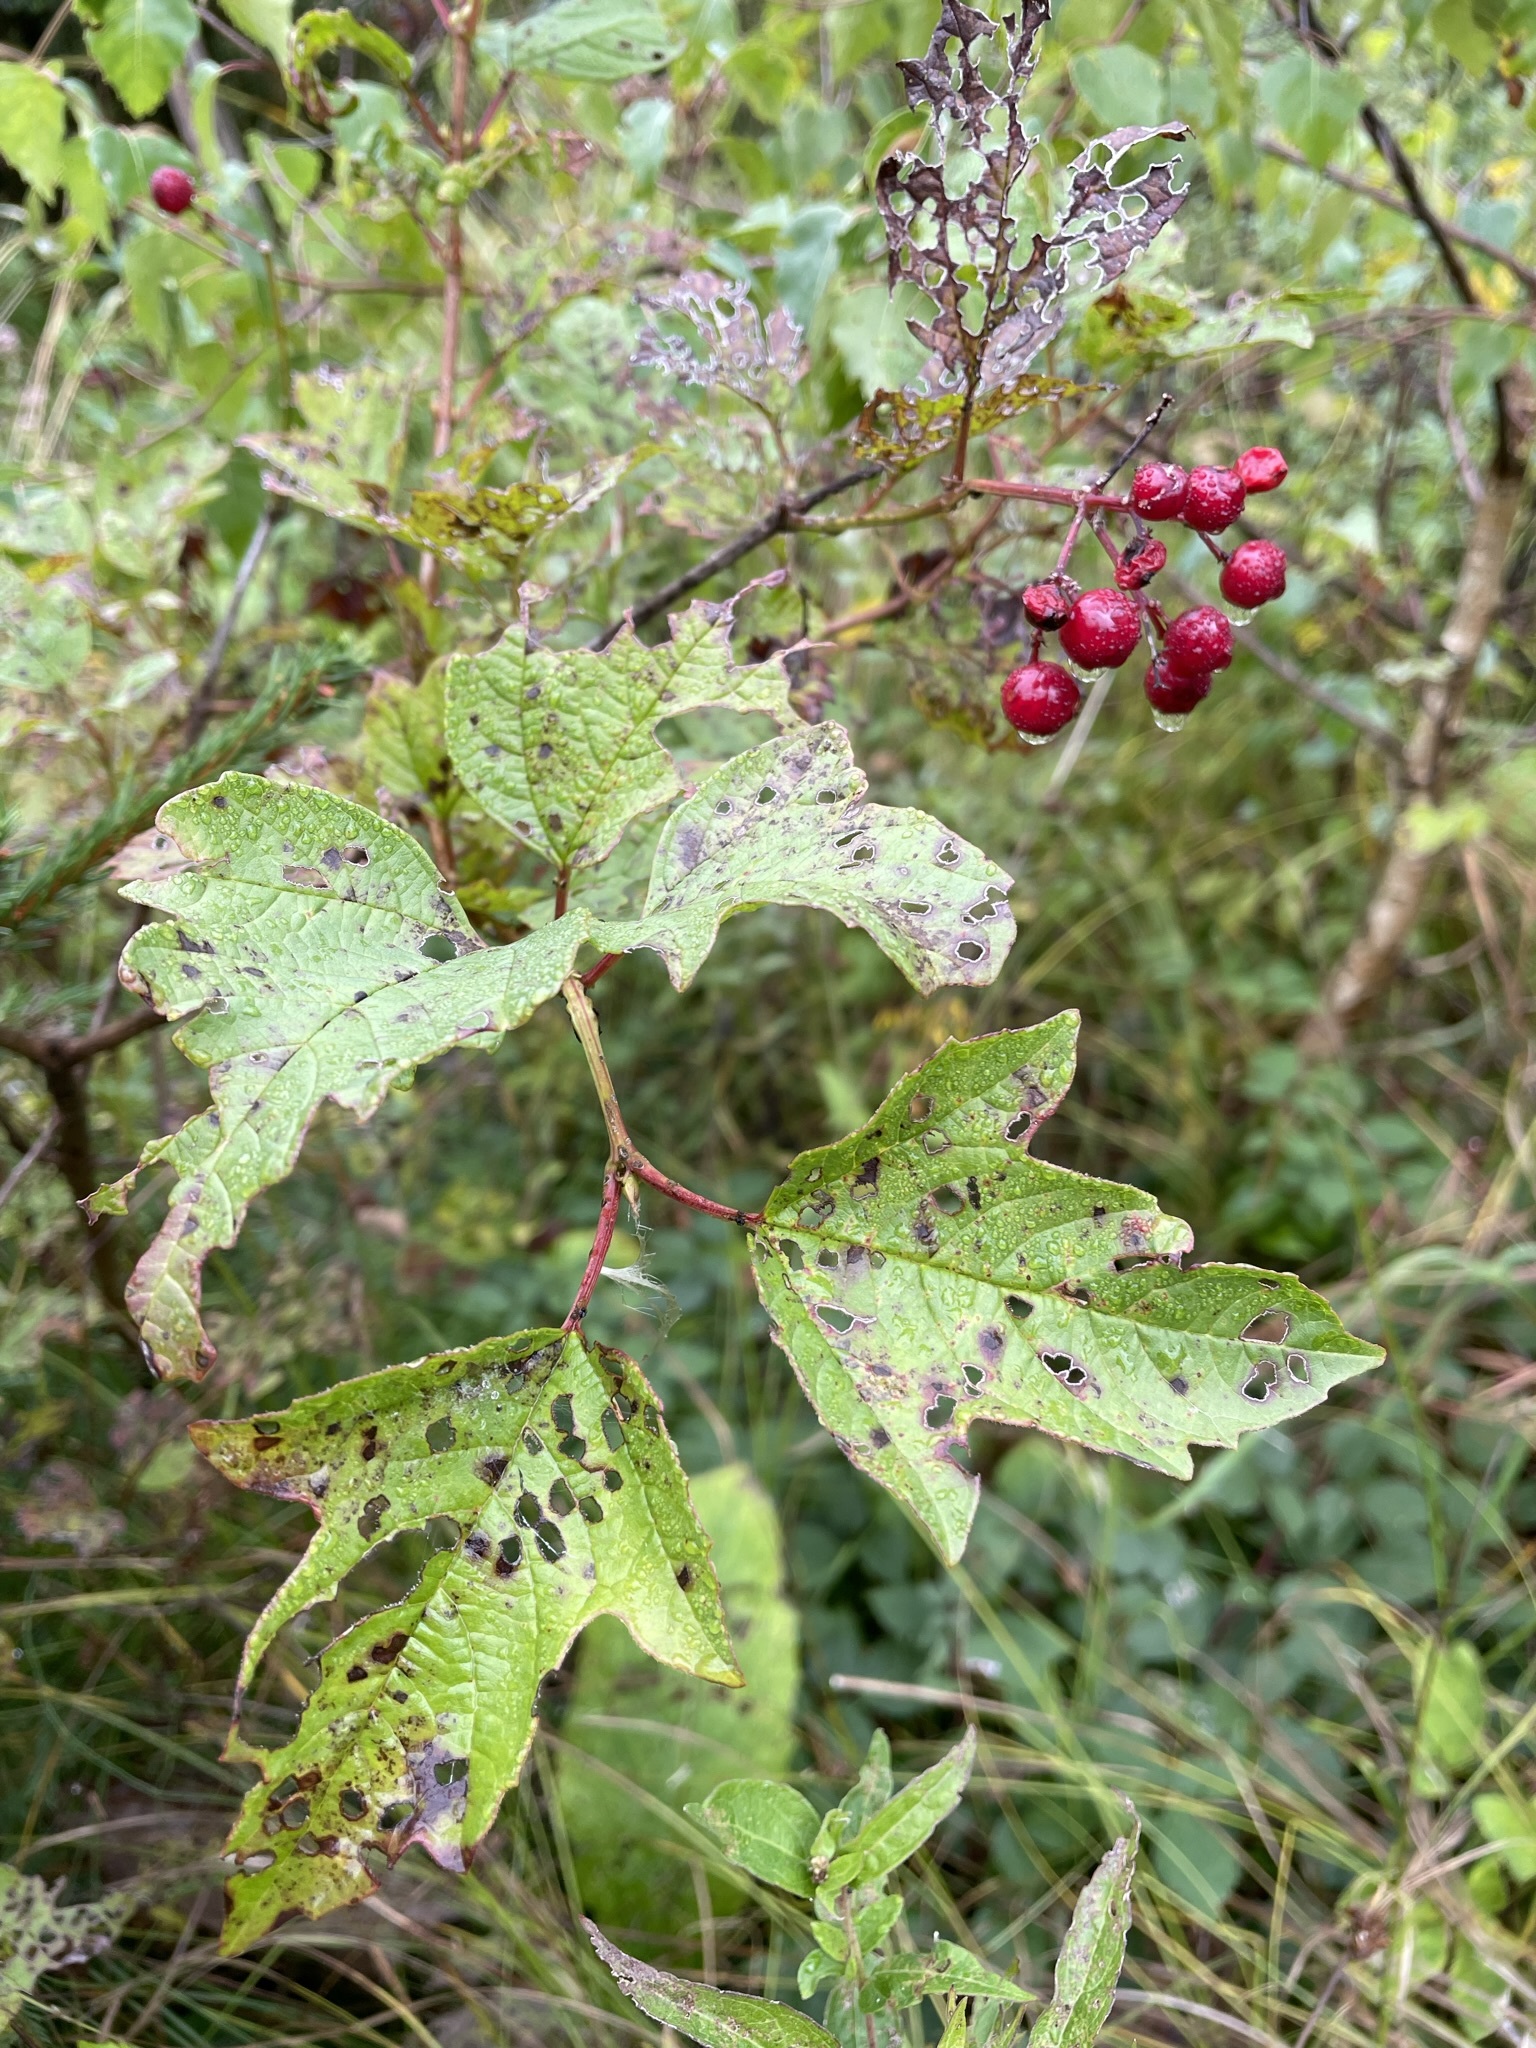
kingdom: Plantae
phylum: Tracheophyta
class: Magnoliopsida
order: Dipsacales
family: Viburnaceae
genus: Viburnum
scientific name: Viburnum opulus
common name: Guelder-rose
